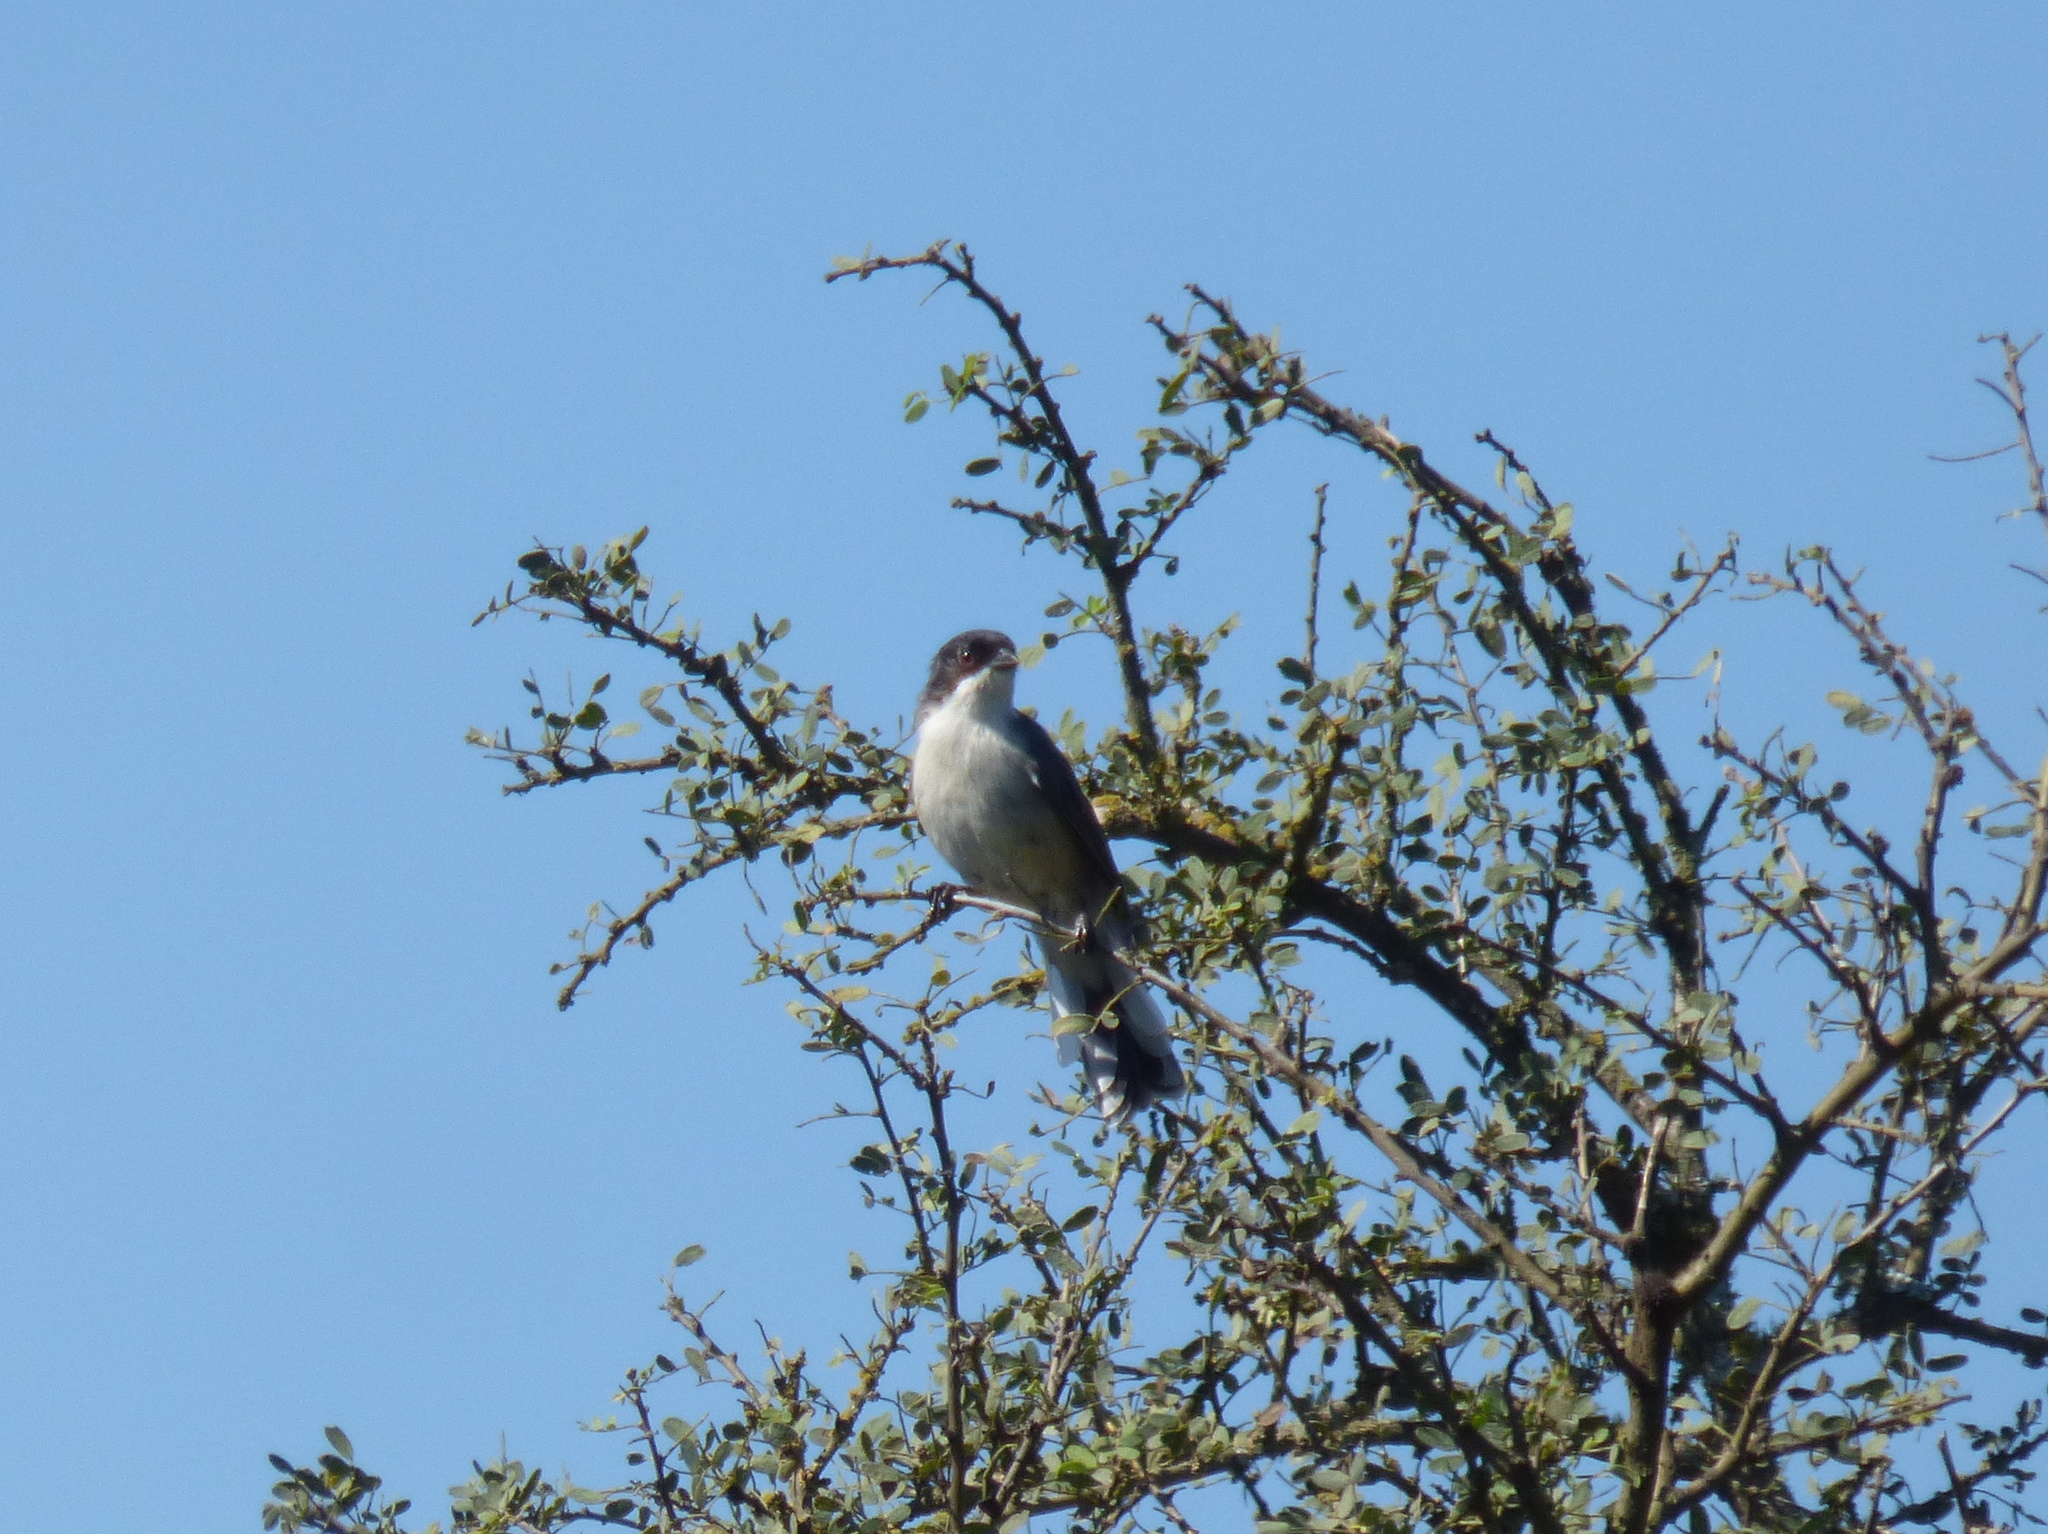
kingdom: Animalia
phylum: Chordata
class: Aves
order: Passeriformes
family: Thraupidae
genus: Microspingus
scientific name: Microspingus melanoleucus
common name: Black-capped warbling-finch
